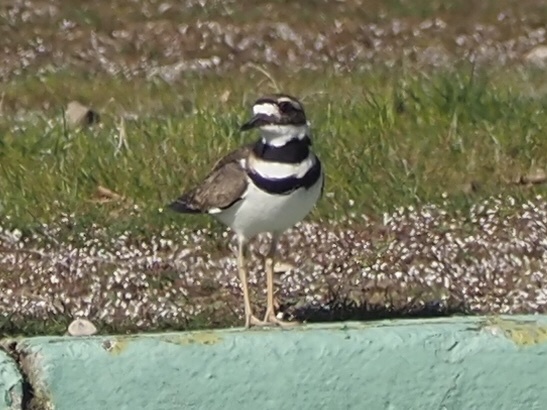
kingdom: Animalia
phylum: Chordata
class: Aves
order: Charadriiformes
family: Charadriidae
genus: Charadrius
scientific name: Charadrius vociferus
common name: Killdeer
